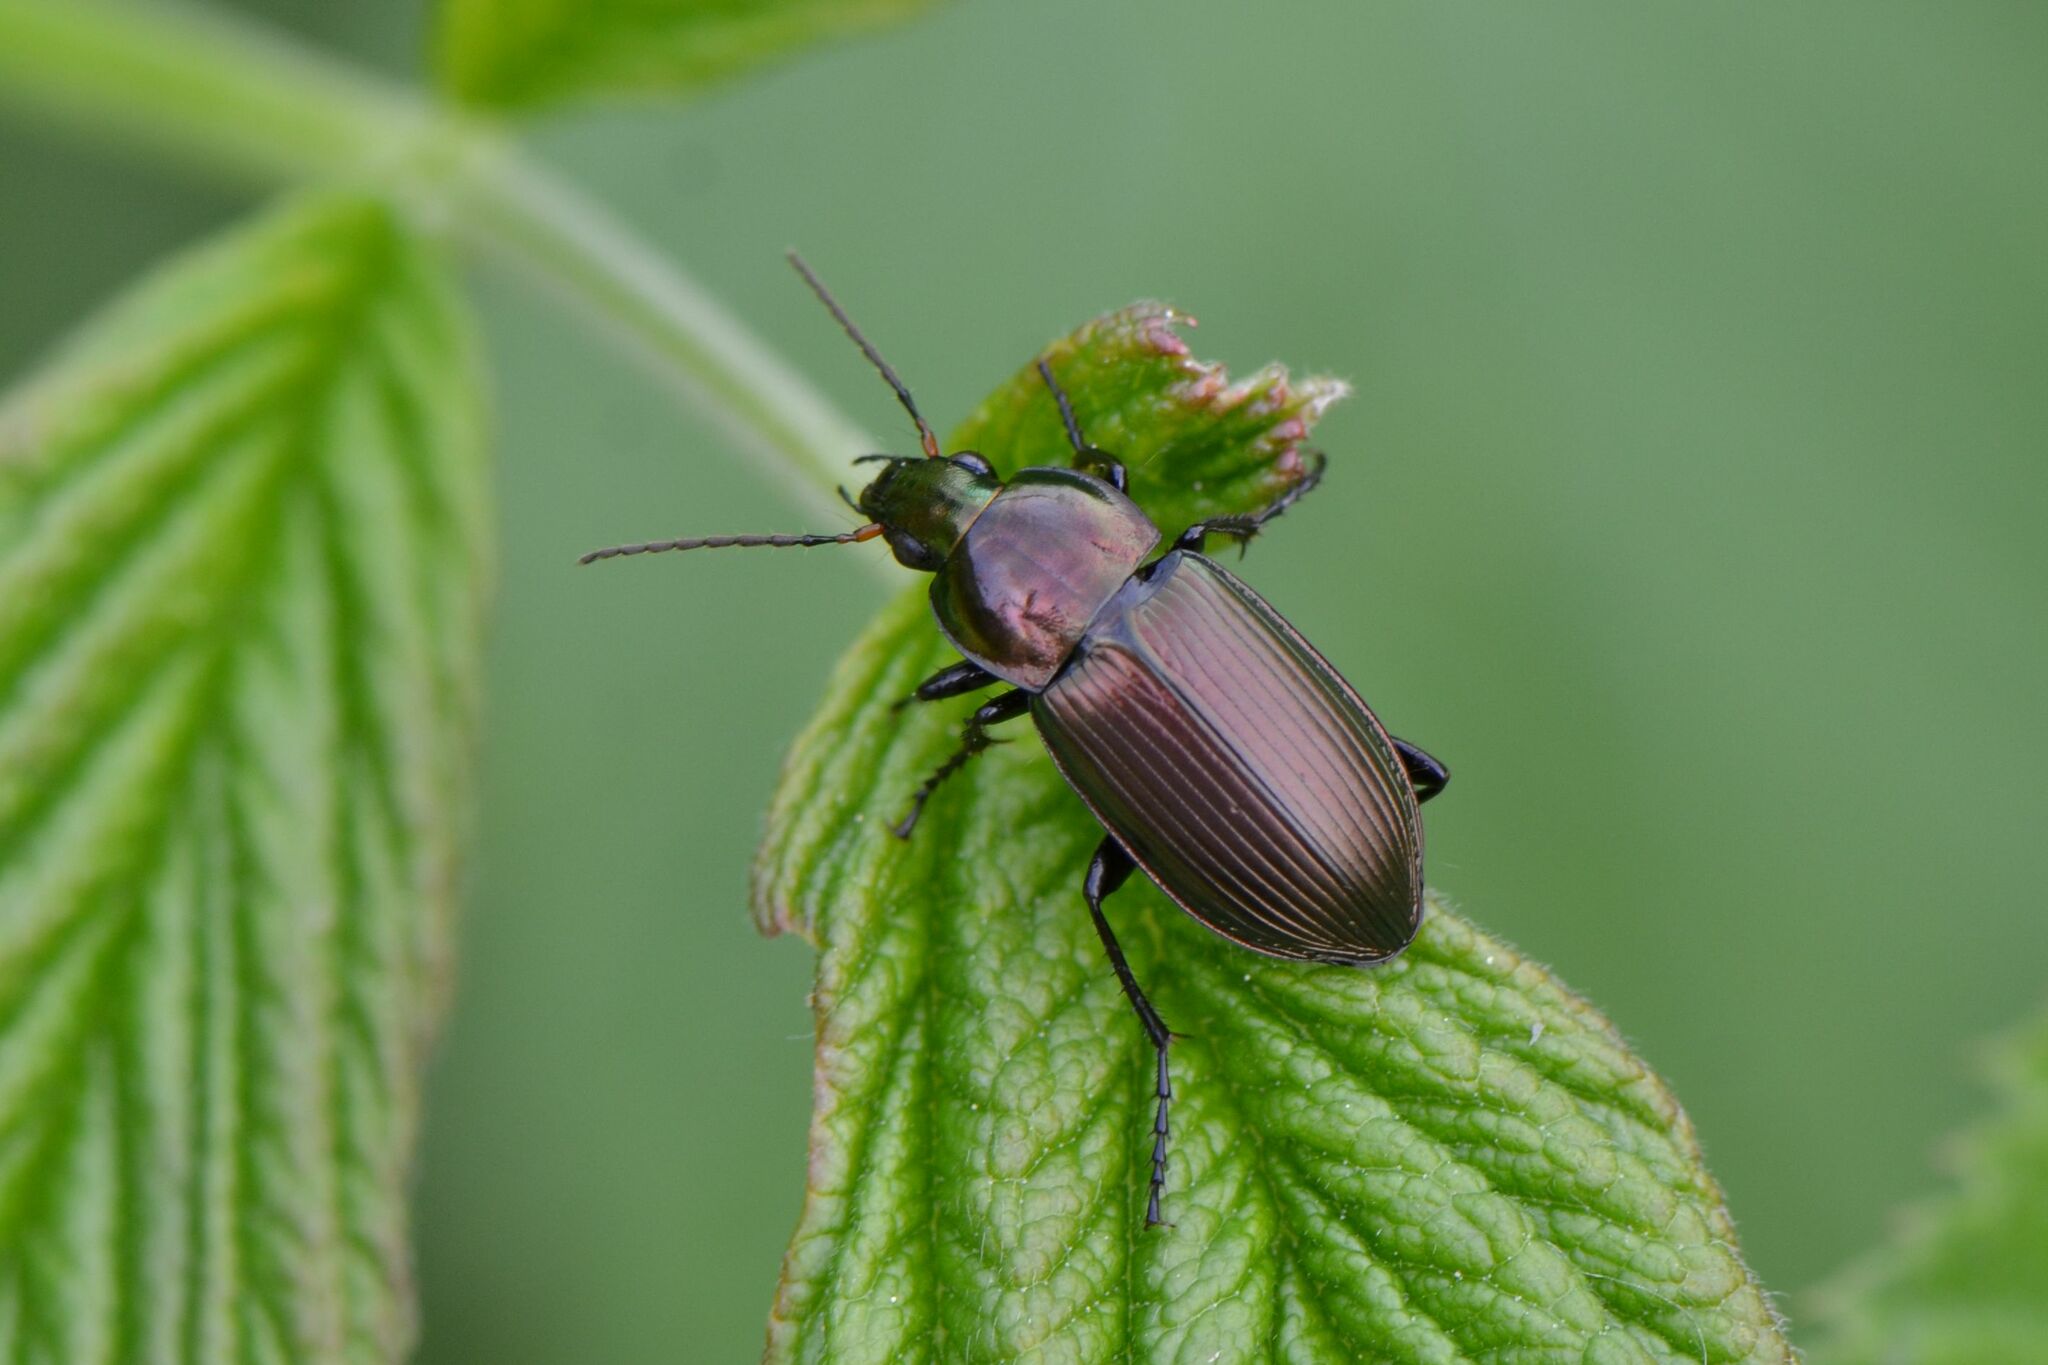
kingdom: Animalia
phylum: Arthropoda
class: Insecta
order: Coleoptera
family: Carabidae
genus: Poecilus
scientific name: Poecilus cupreus
